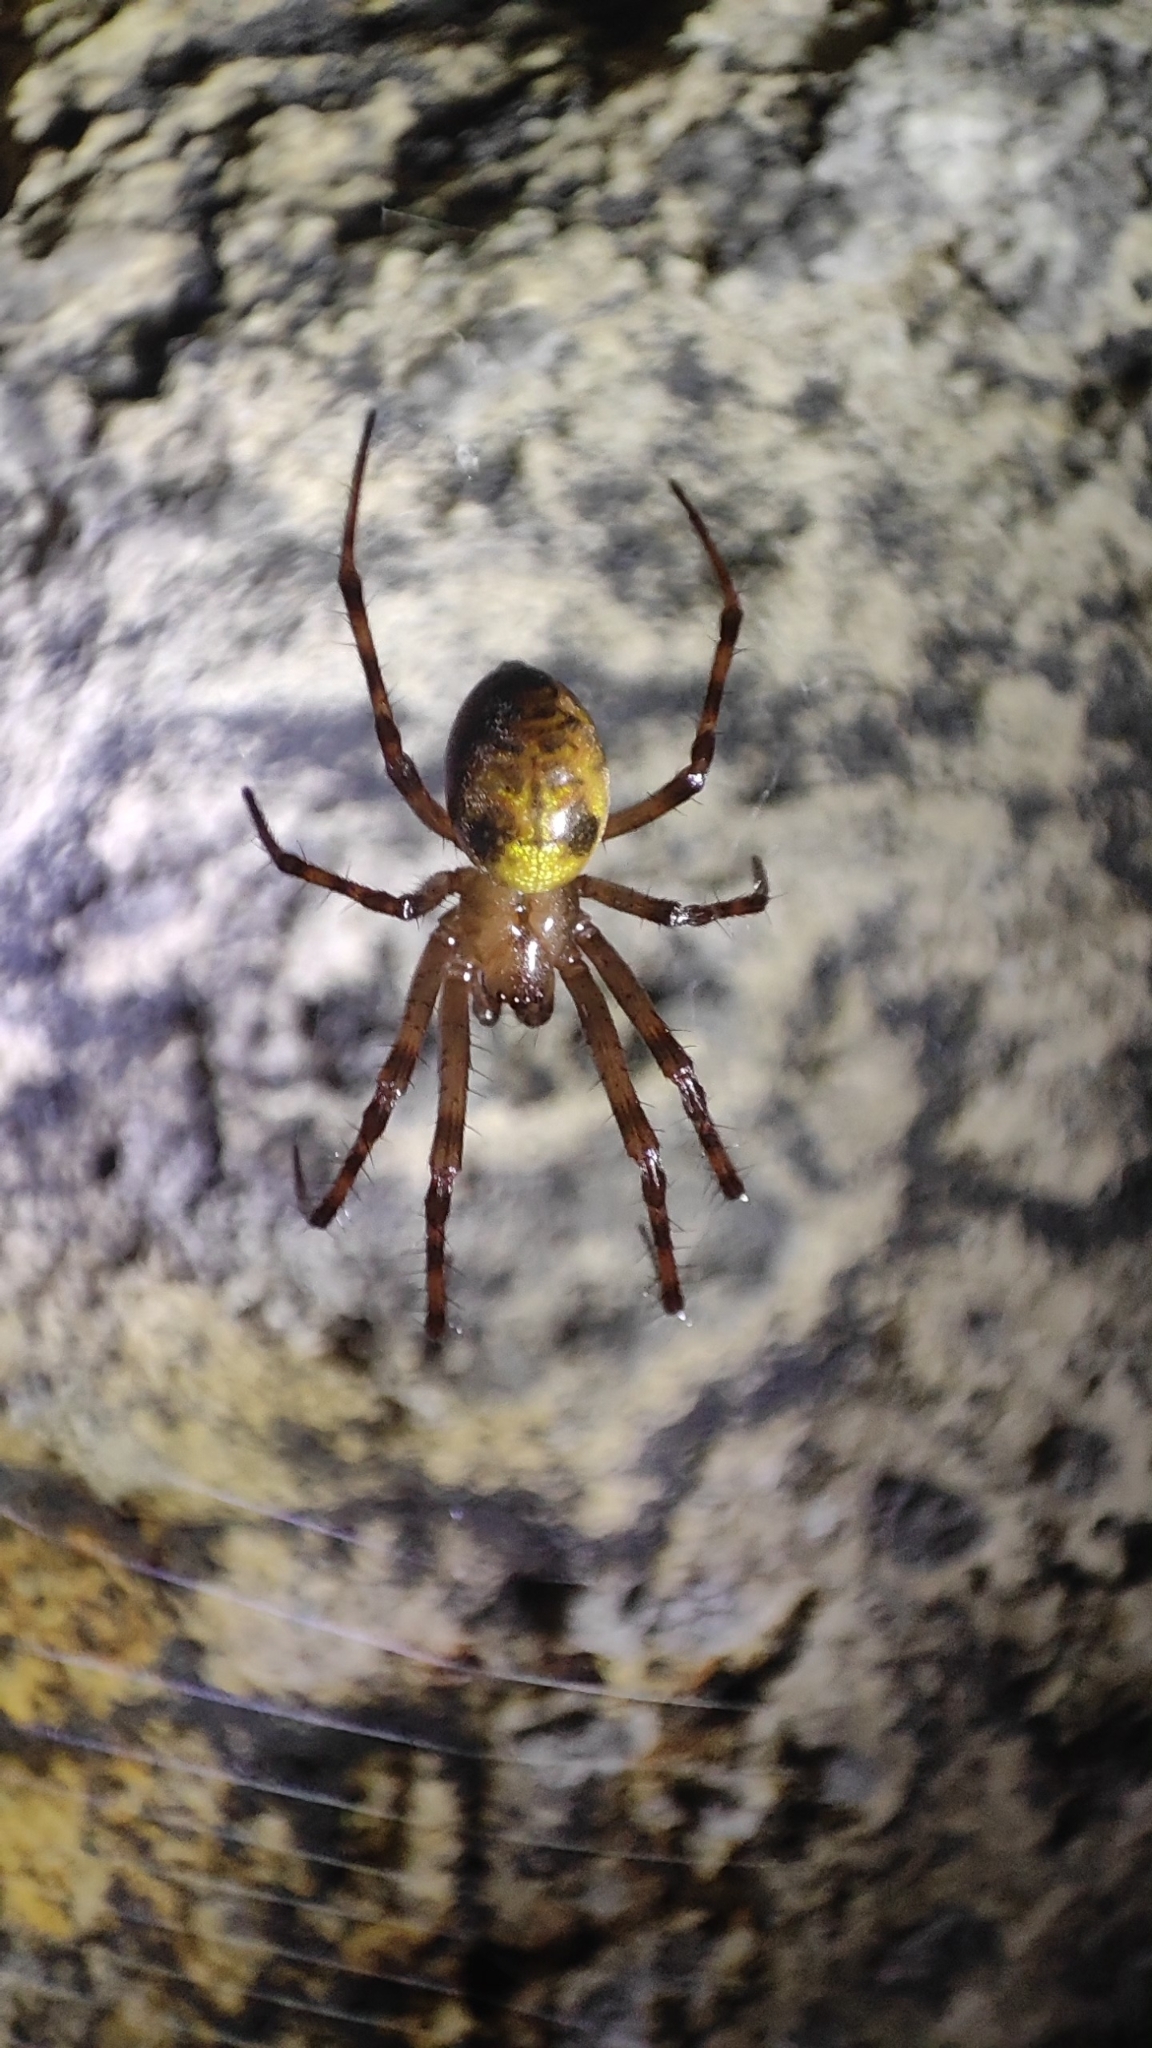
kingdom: Animalia
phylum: Arthropoda
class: Arachnida
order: Araneae
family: Tetragnathidae
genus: Meta
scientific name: Meta menardi
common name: Cave spider
